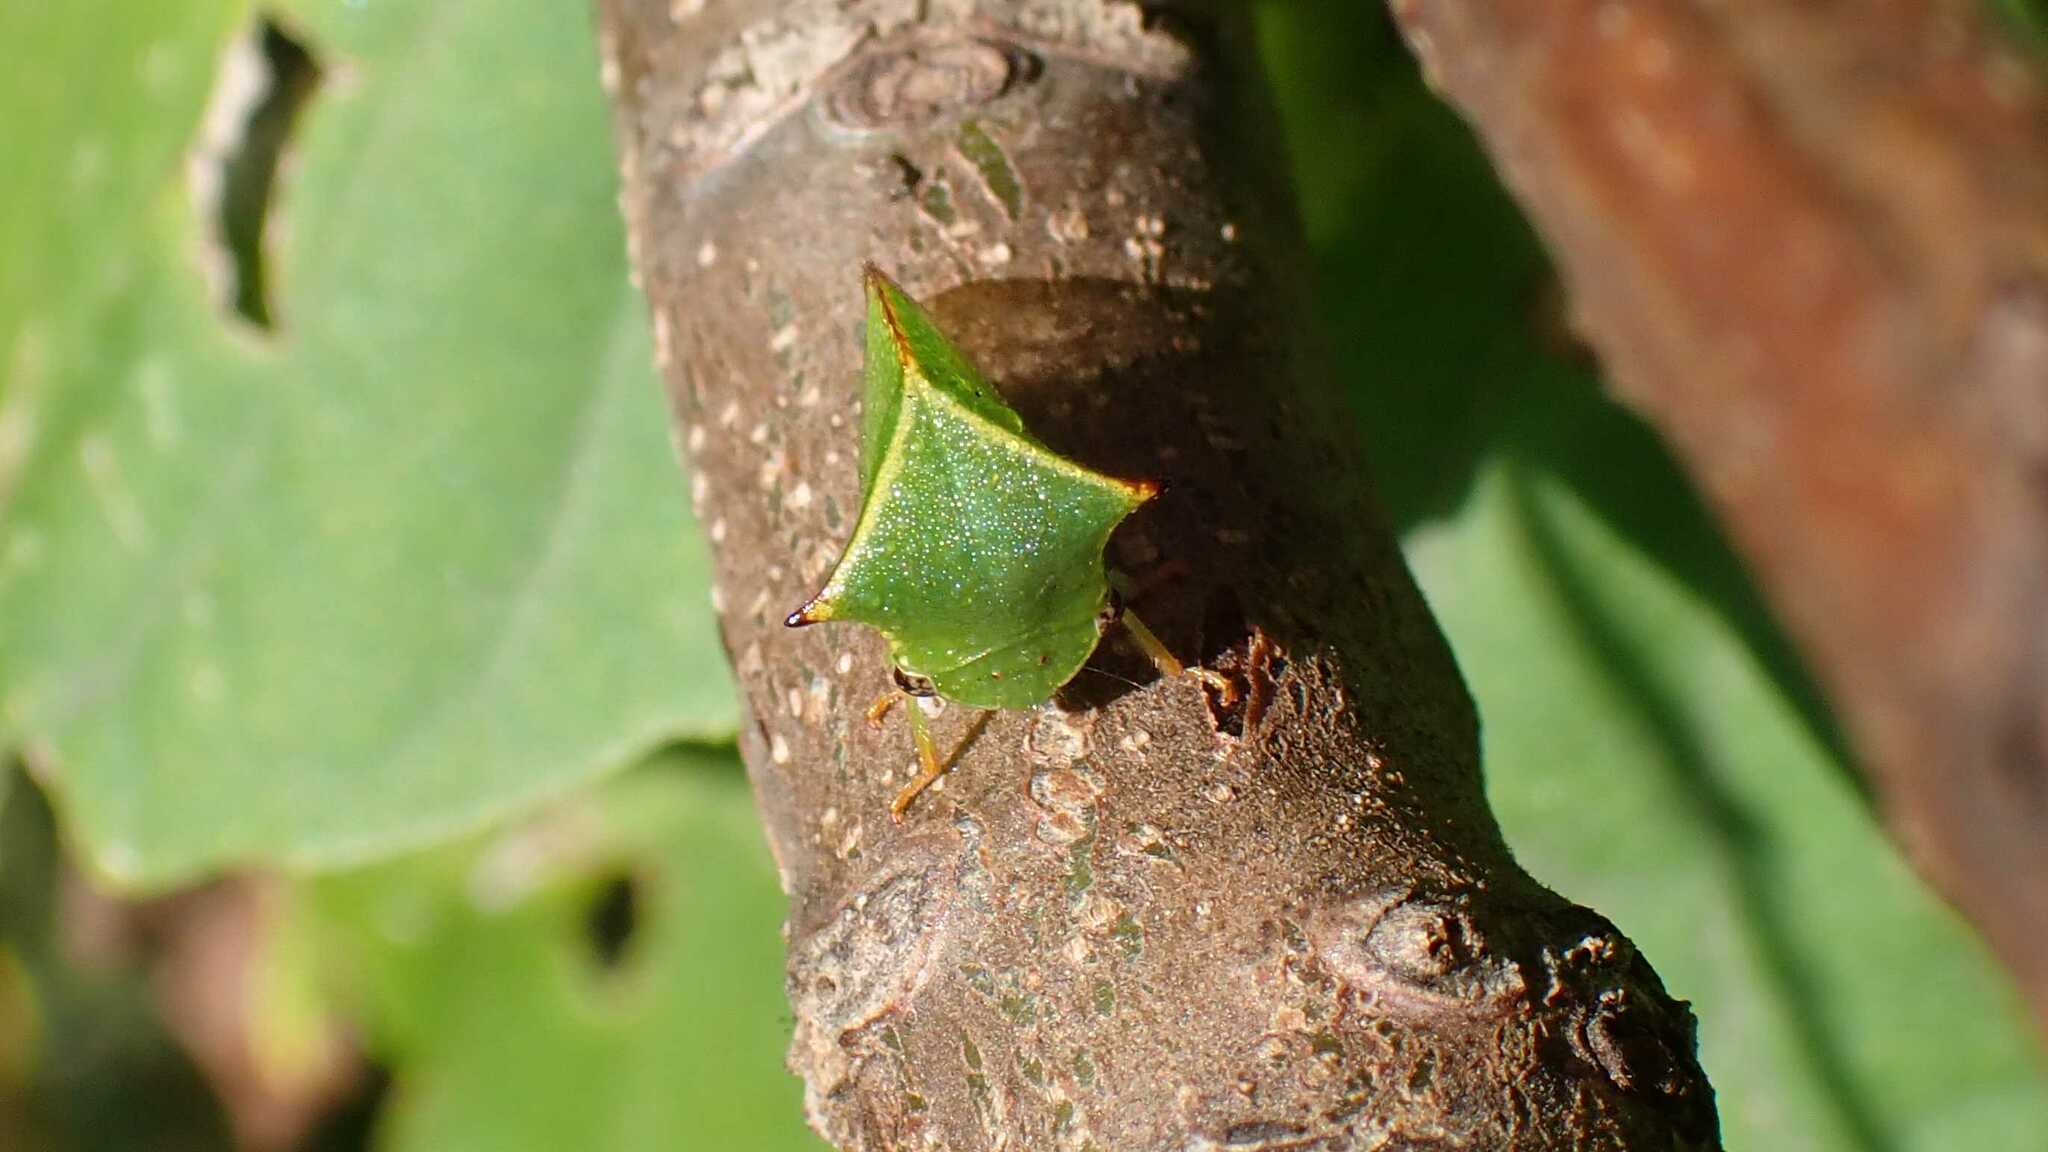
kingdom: Animalia
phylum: Arthropoda
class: Insecta
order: Hemiptera
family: Membracidae
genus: Stictocephala
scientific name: Stictocephala bisonia
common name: American buffalo treehopper
